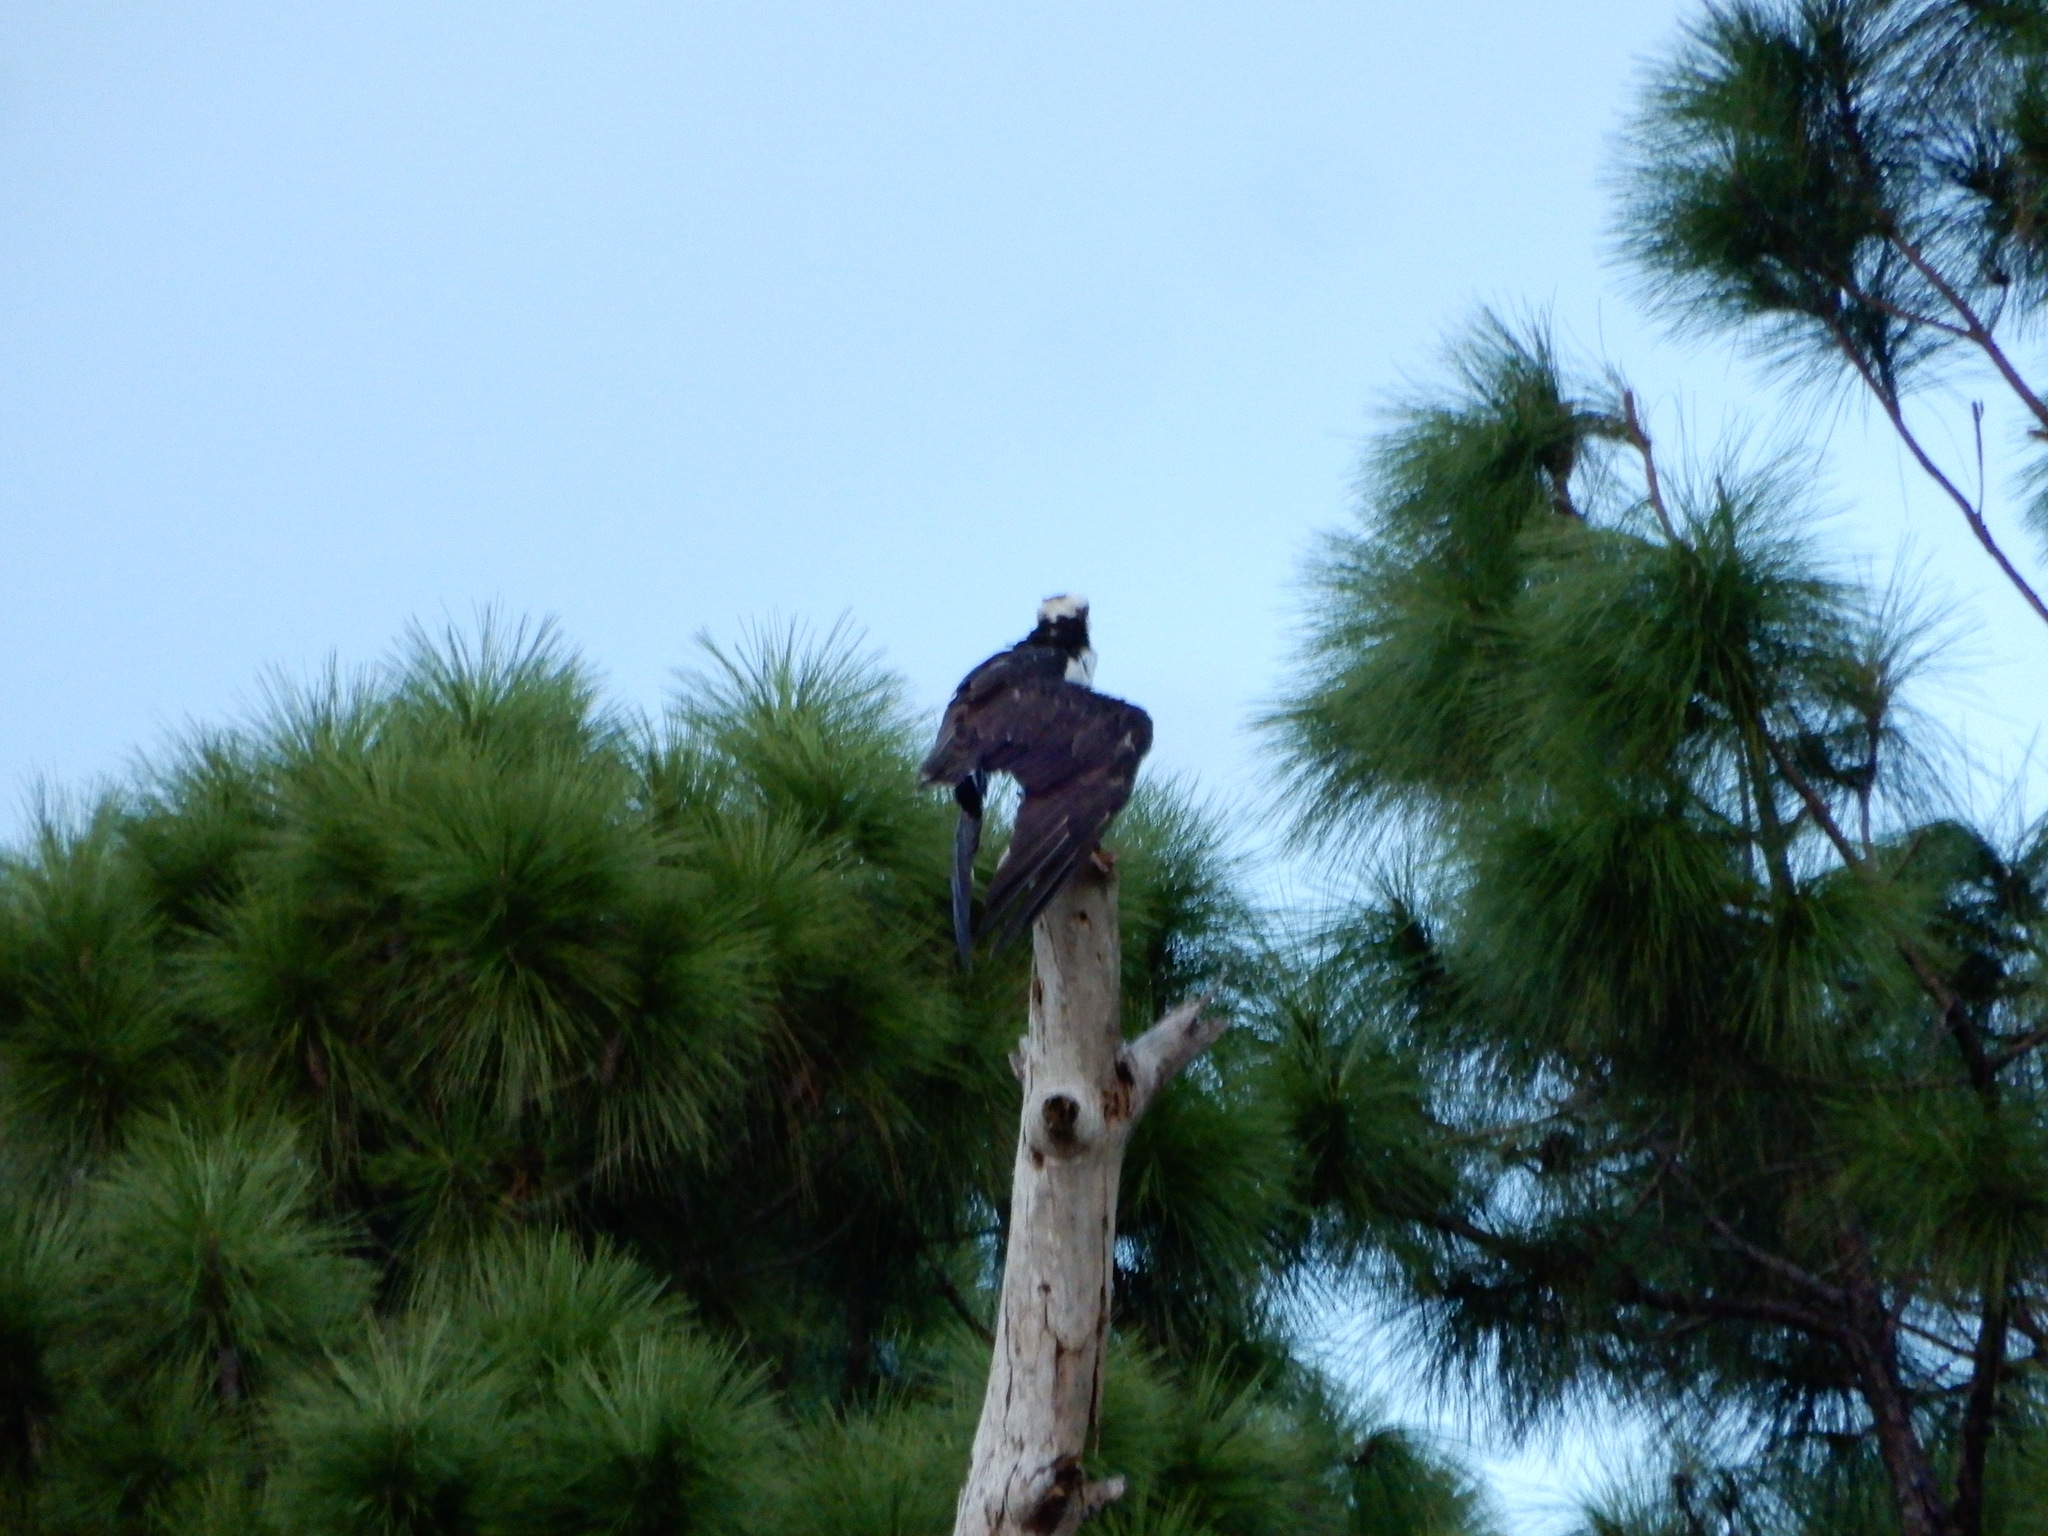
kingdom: Animalia
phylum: Chordata
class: Aves
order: Accipitriformes
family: Pandionidae
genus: Pandion
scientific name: Pandion haliaetus
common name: Osprey
